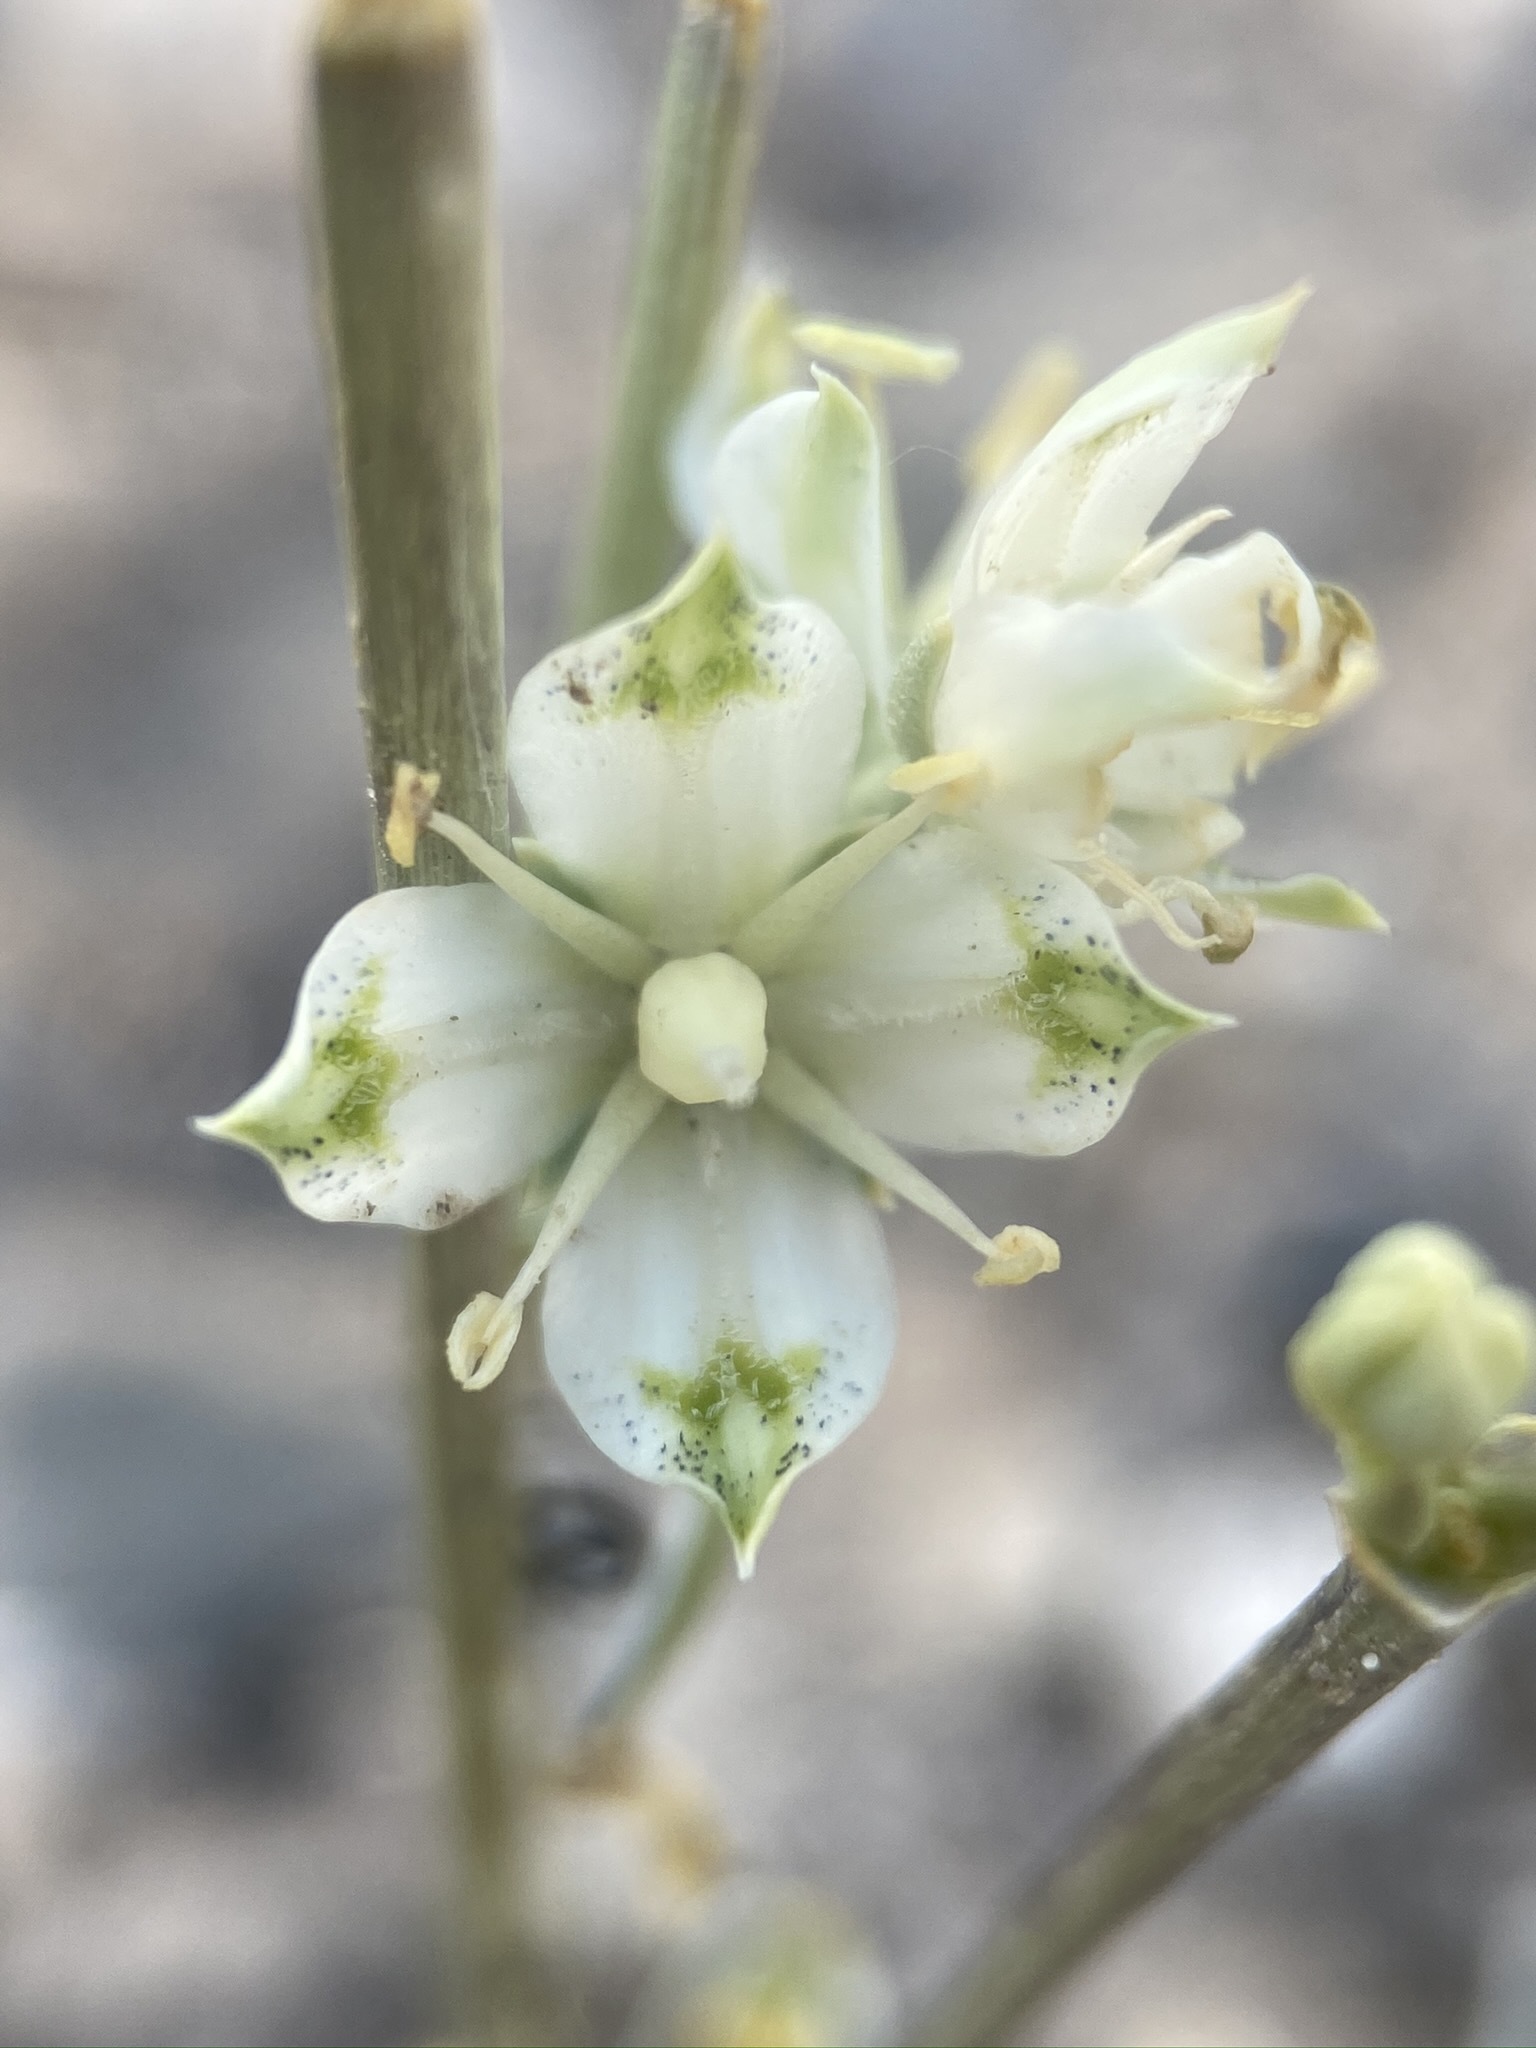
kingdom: Plantae
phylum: Tracheophyta
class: Magnoliopsida
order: Gentianales
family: Gentianaceae
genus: Frasera
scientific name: Frasera albomarginata
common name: Desert frasera
